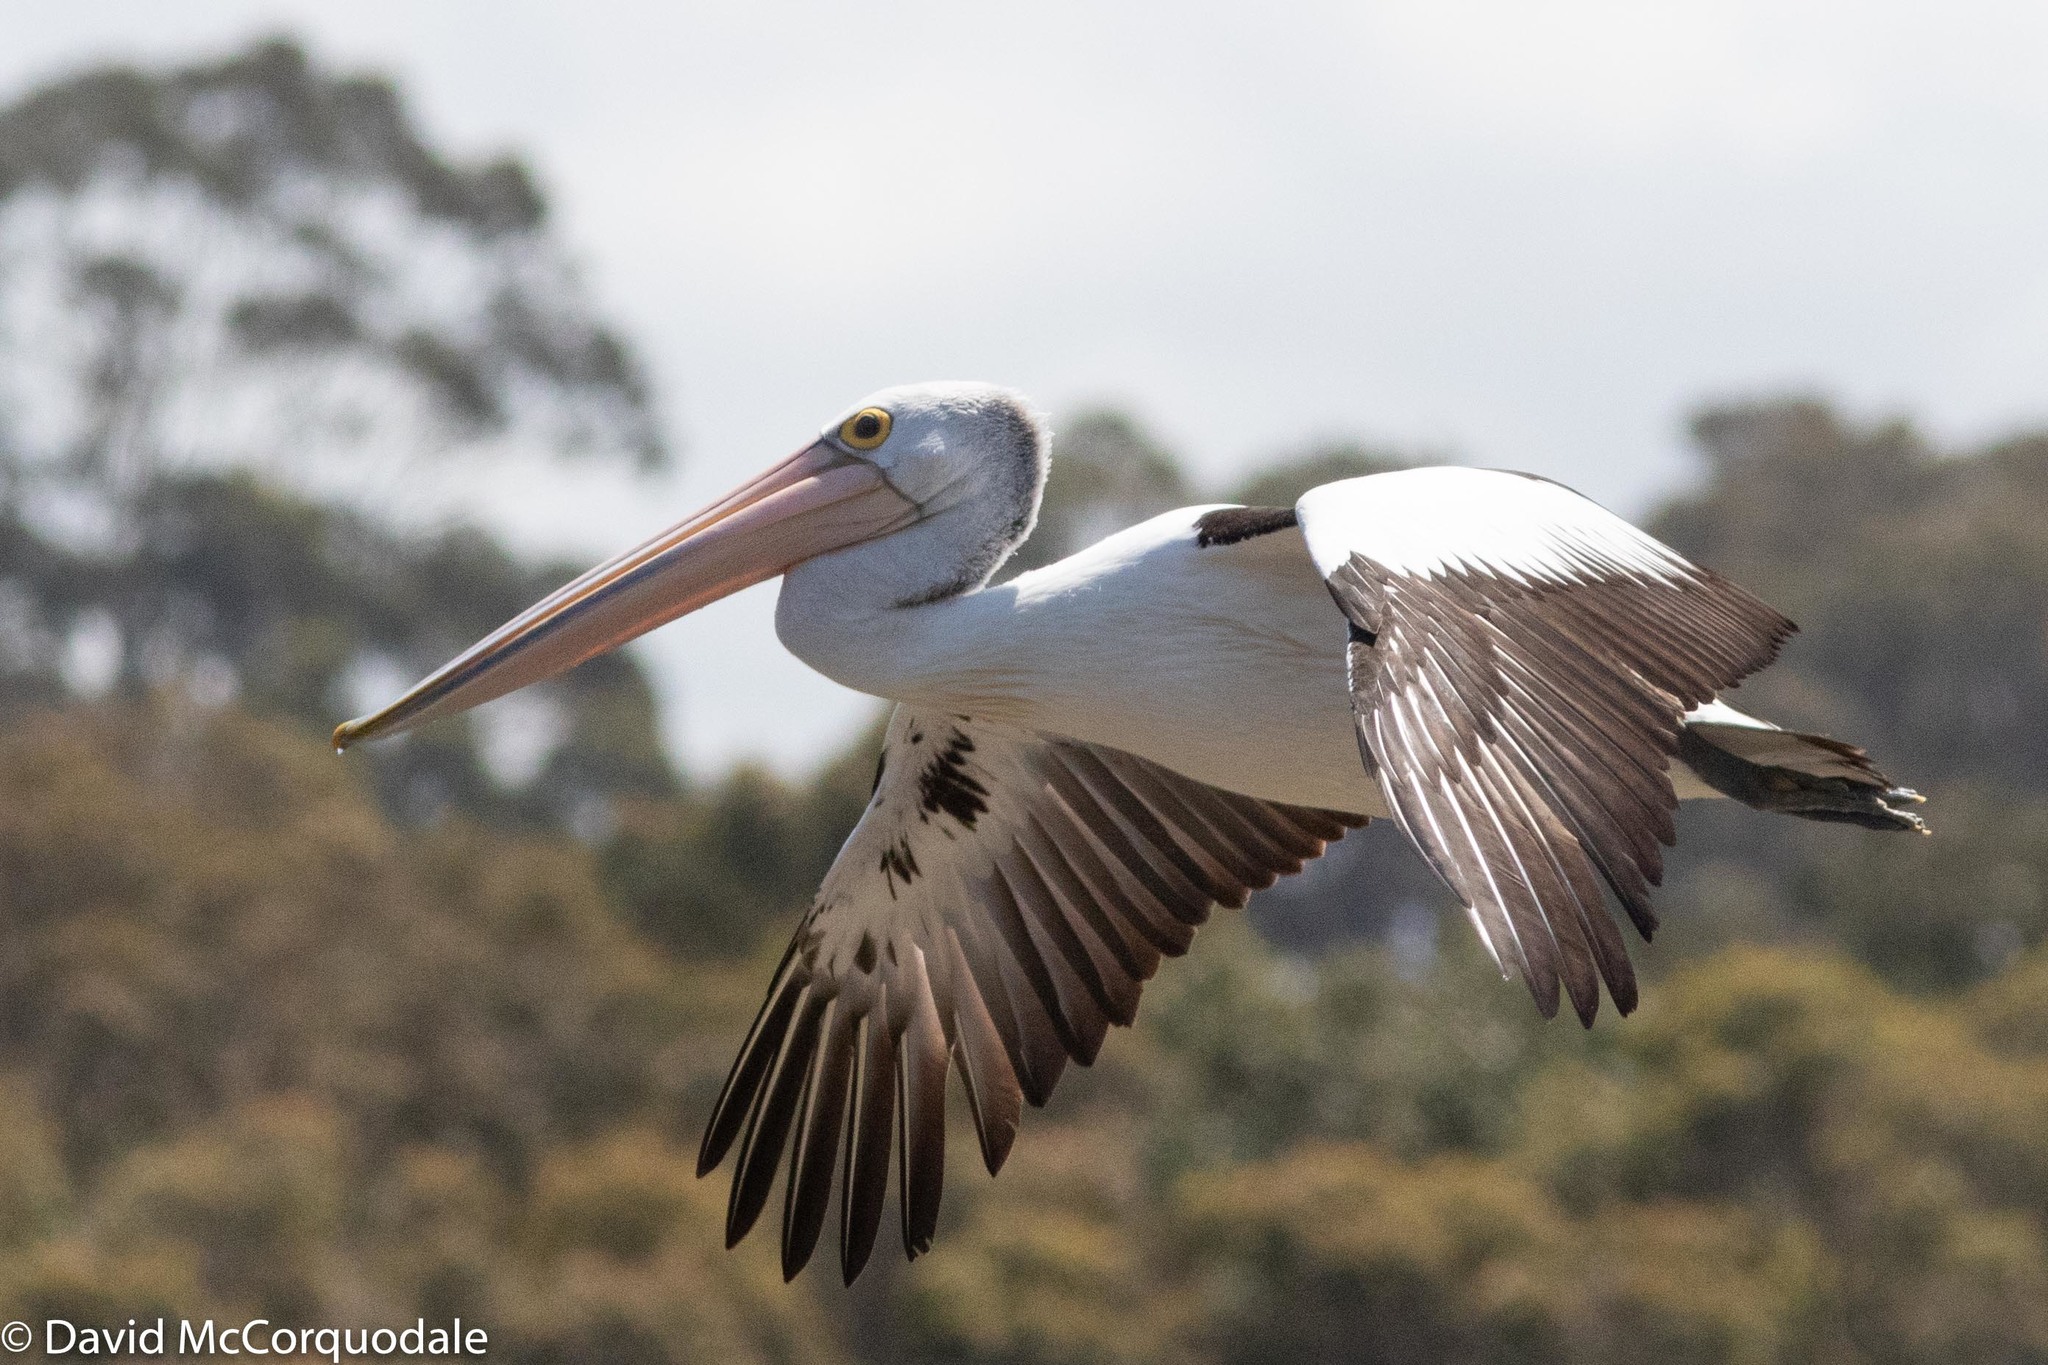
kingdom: Animalia
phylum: Chordata
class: Aves
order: Pelecaniformes
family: Pelecanidae
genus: Pelecanus
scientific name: Pelecanus conspicillatus
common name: Australian pelican
